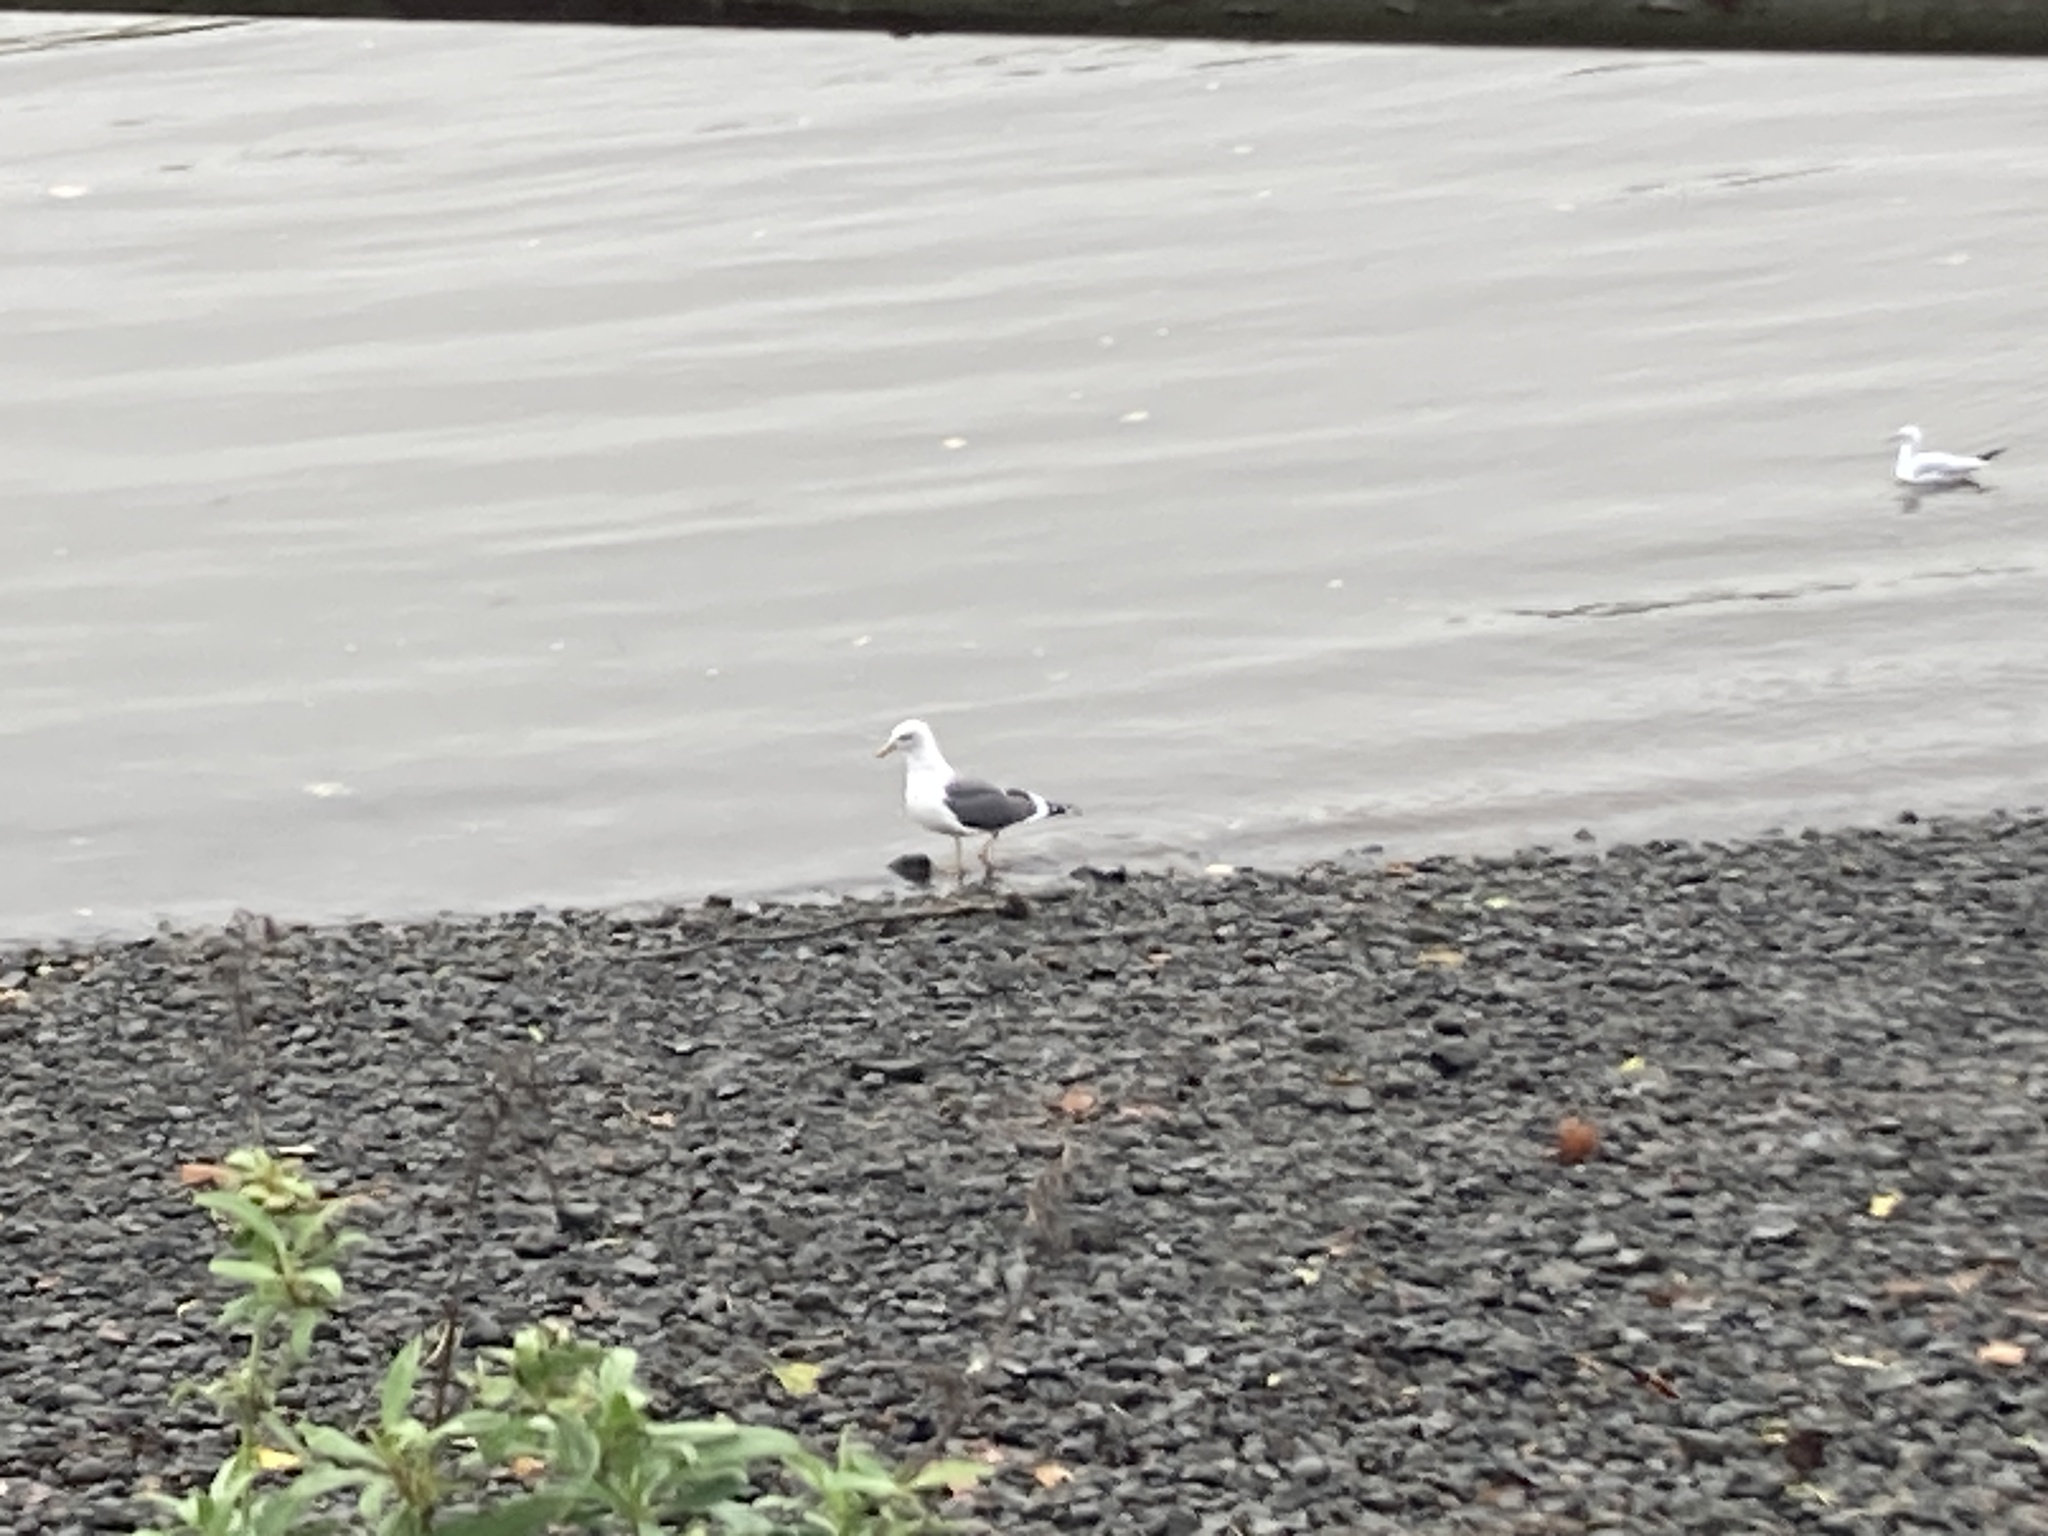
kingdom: Animalia
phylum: Chordata
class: Aves
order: Charadriiformes
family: Laridae
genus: Larus
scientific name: Larus fuscus
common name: Lesser black-backed gull
